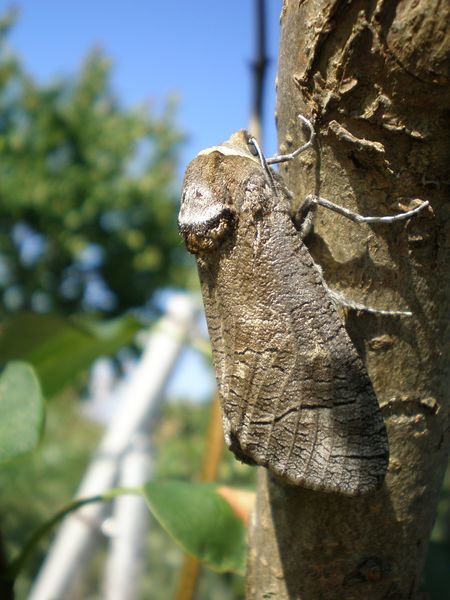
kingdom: Animalia
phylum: Arthropoda
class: Insecta
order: Lepidoptera
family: Cossidae
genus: Cossus
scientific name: Cossus cossus
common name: Goat moth
